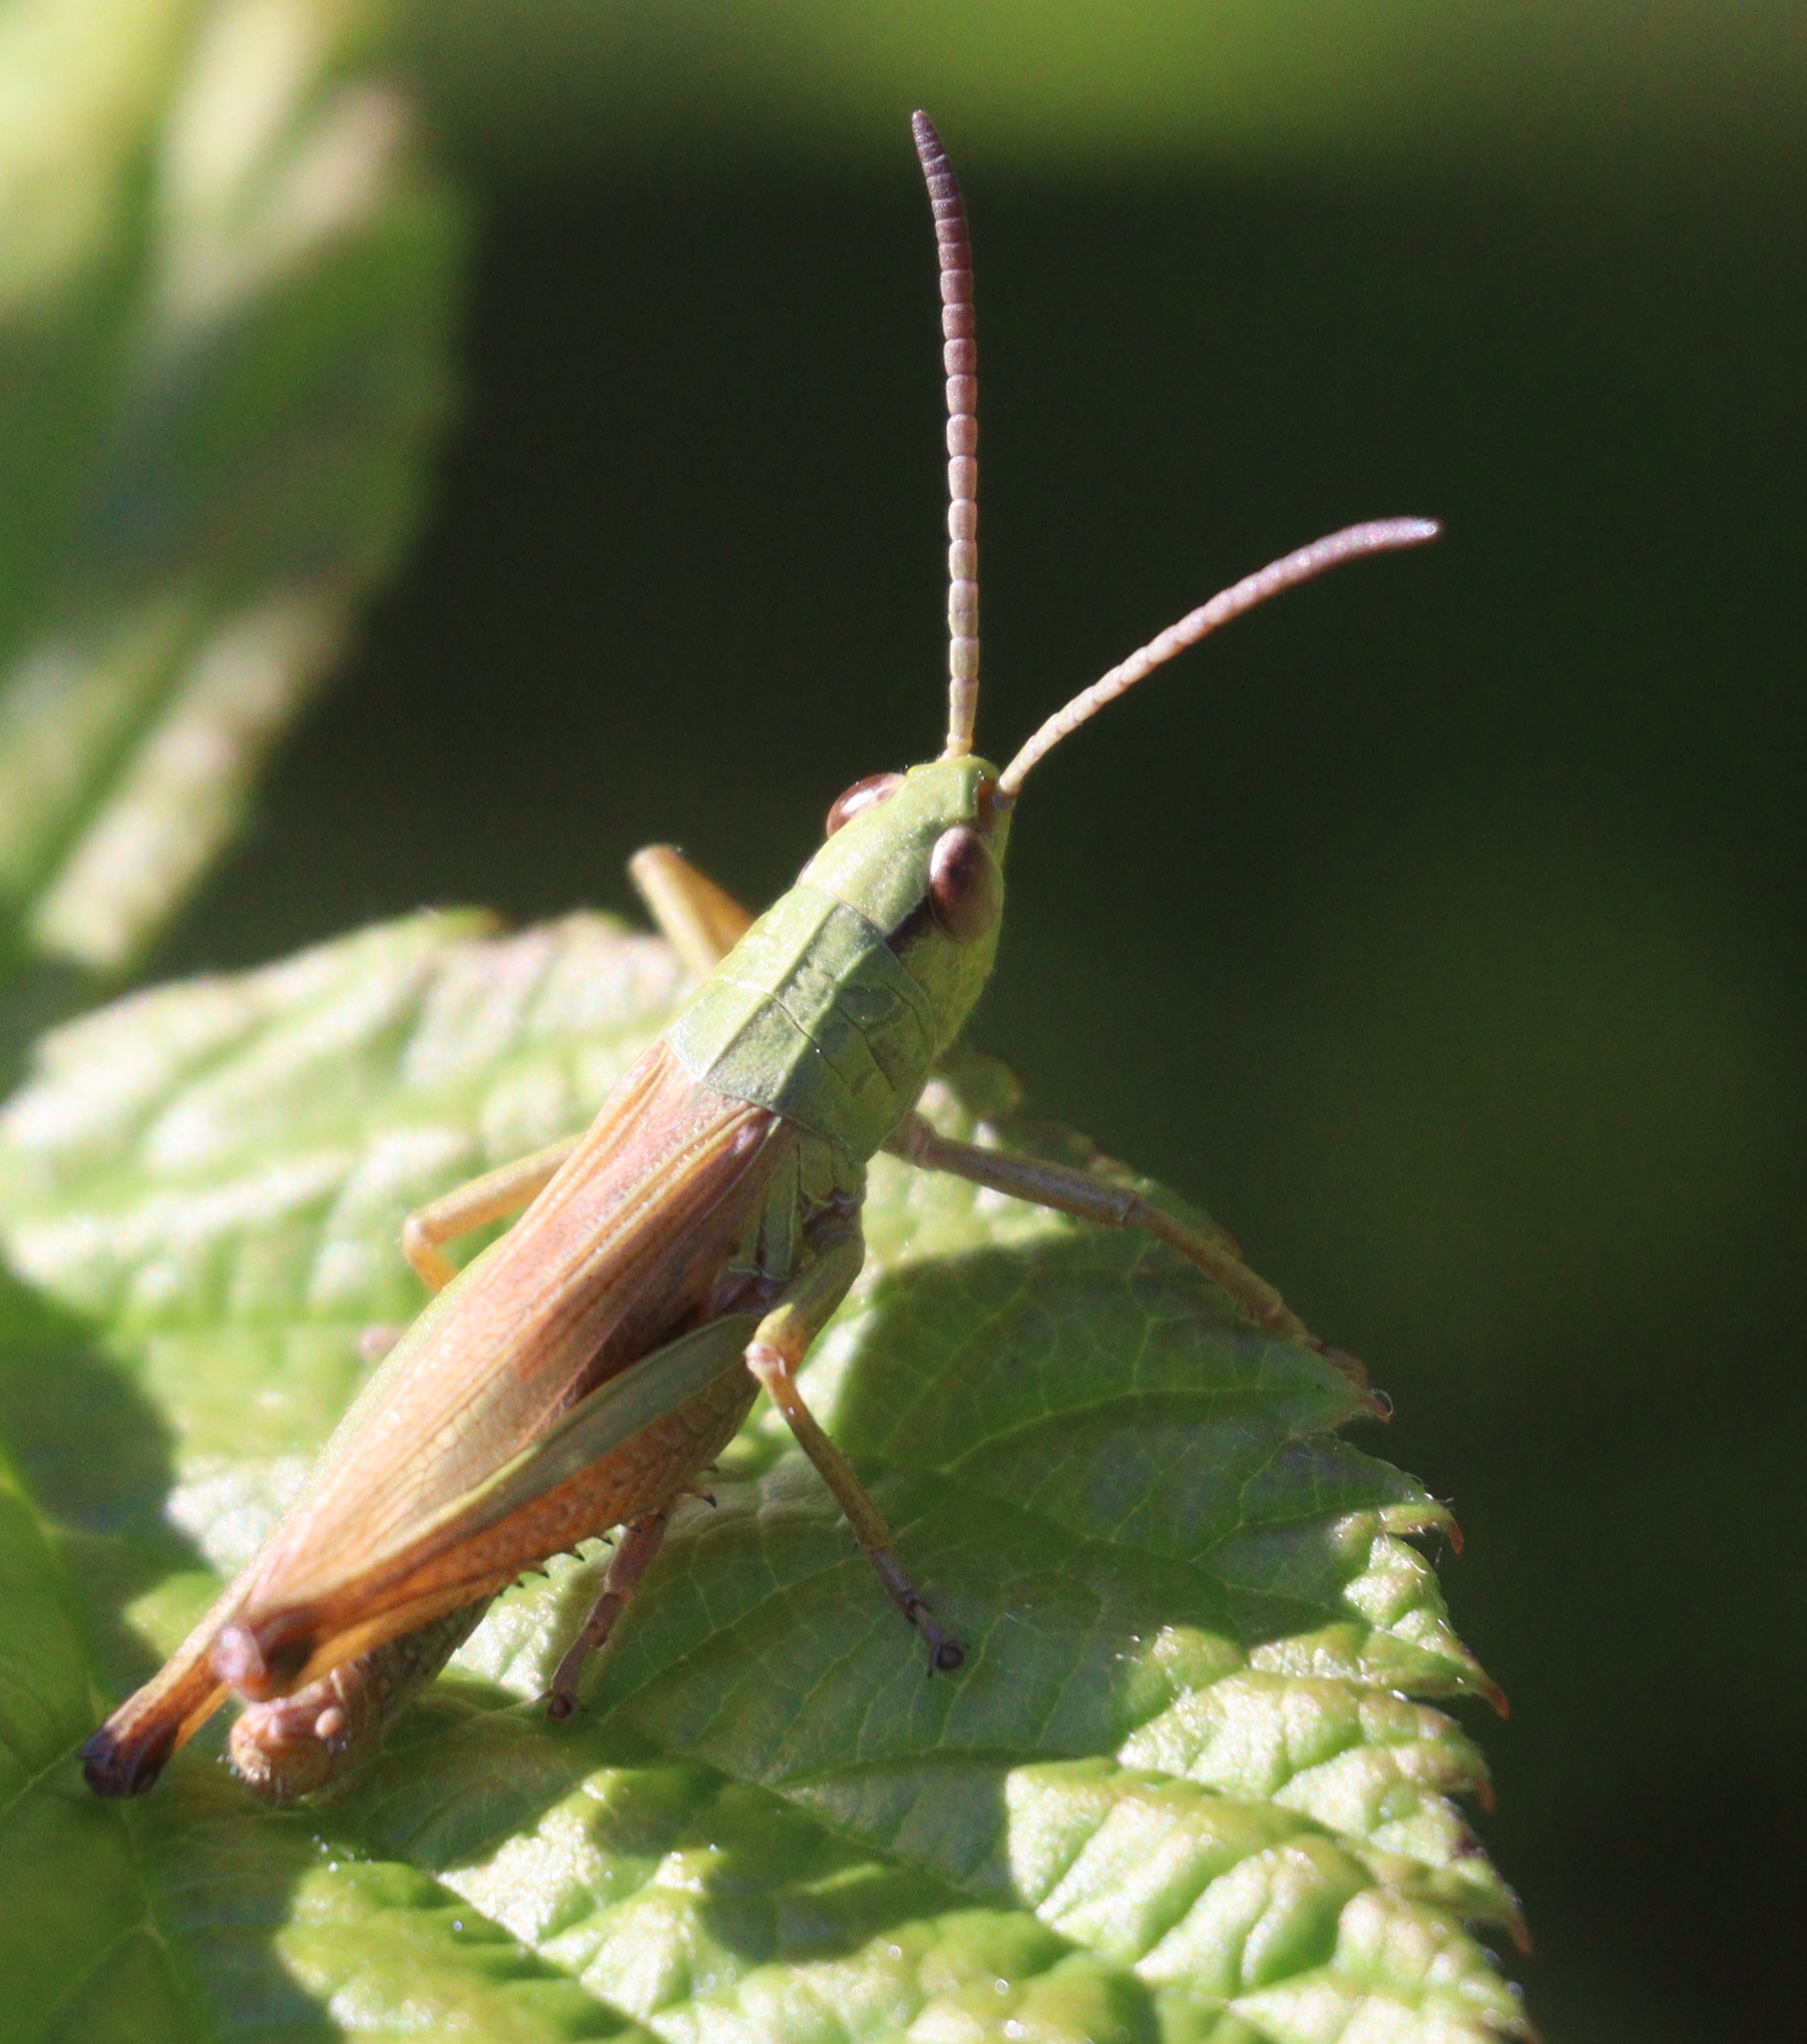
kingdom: Animalia
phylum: Arthropoda
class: Insecta
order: Orthoptera
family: Acrididae
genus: Pseudochorthippus
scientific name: Pseudochorthippus parallelus
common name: Meadow grasshopper
